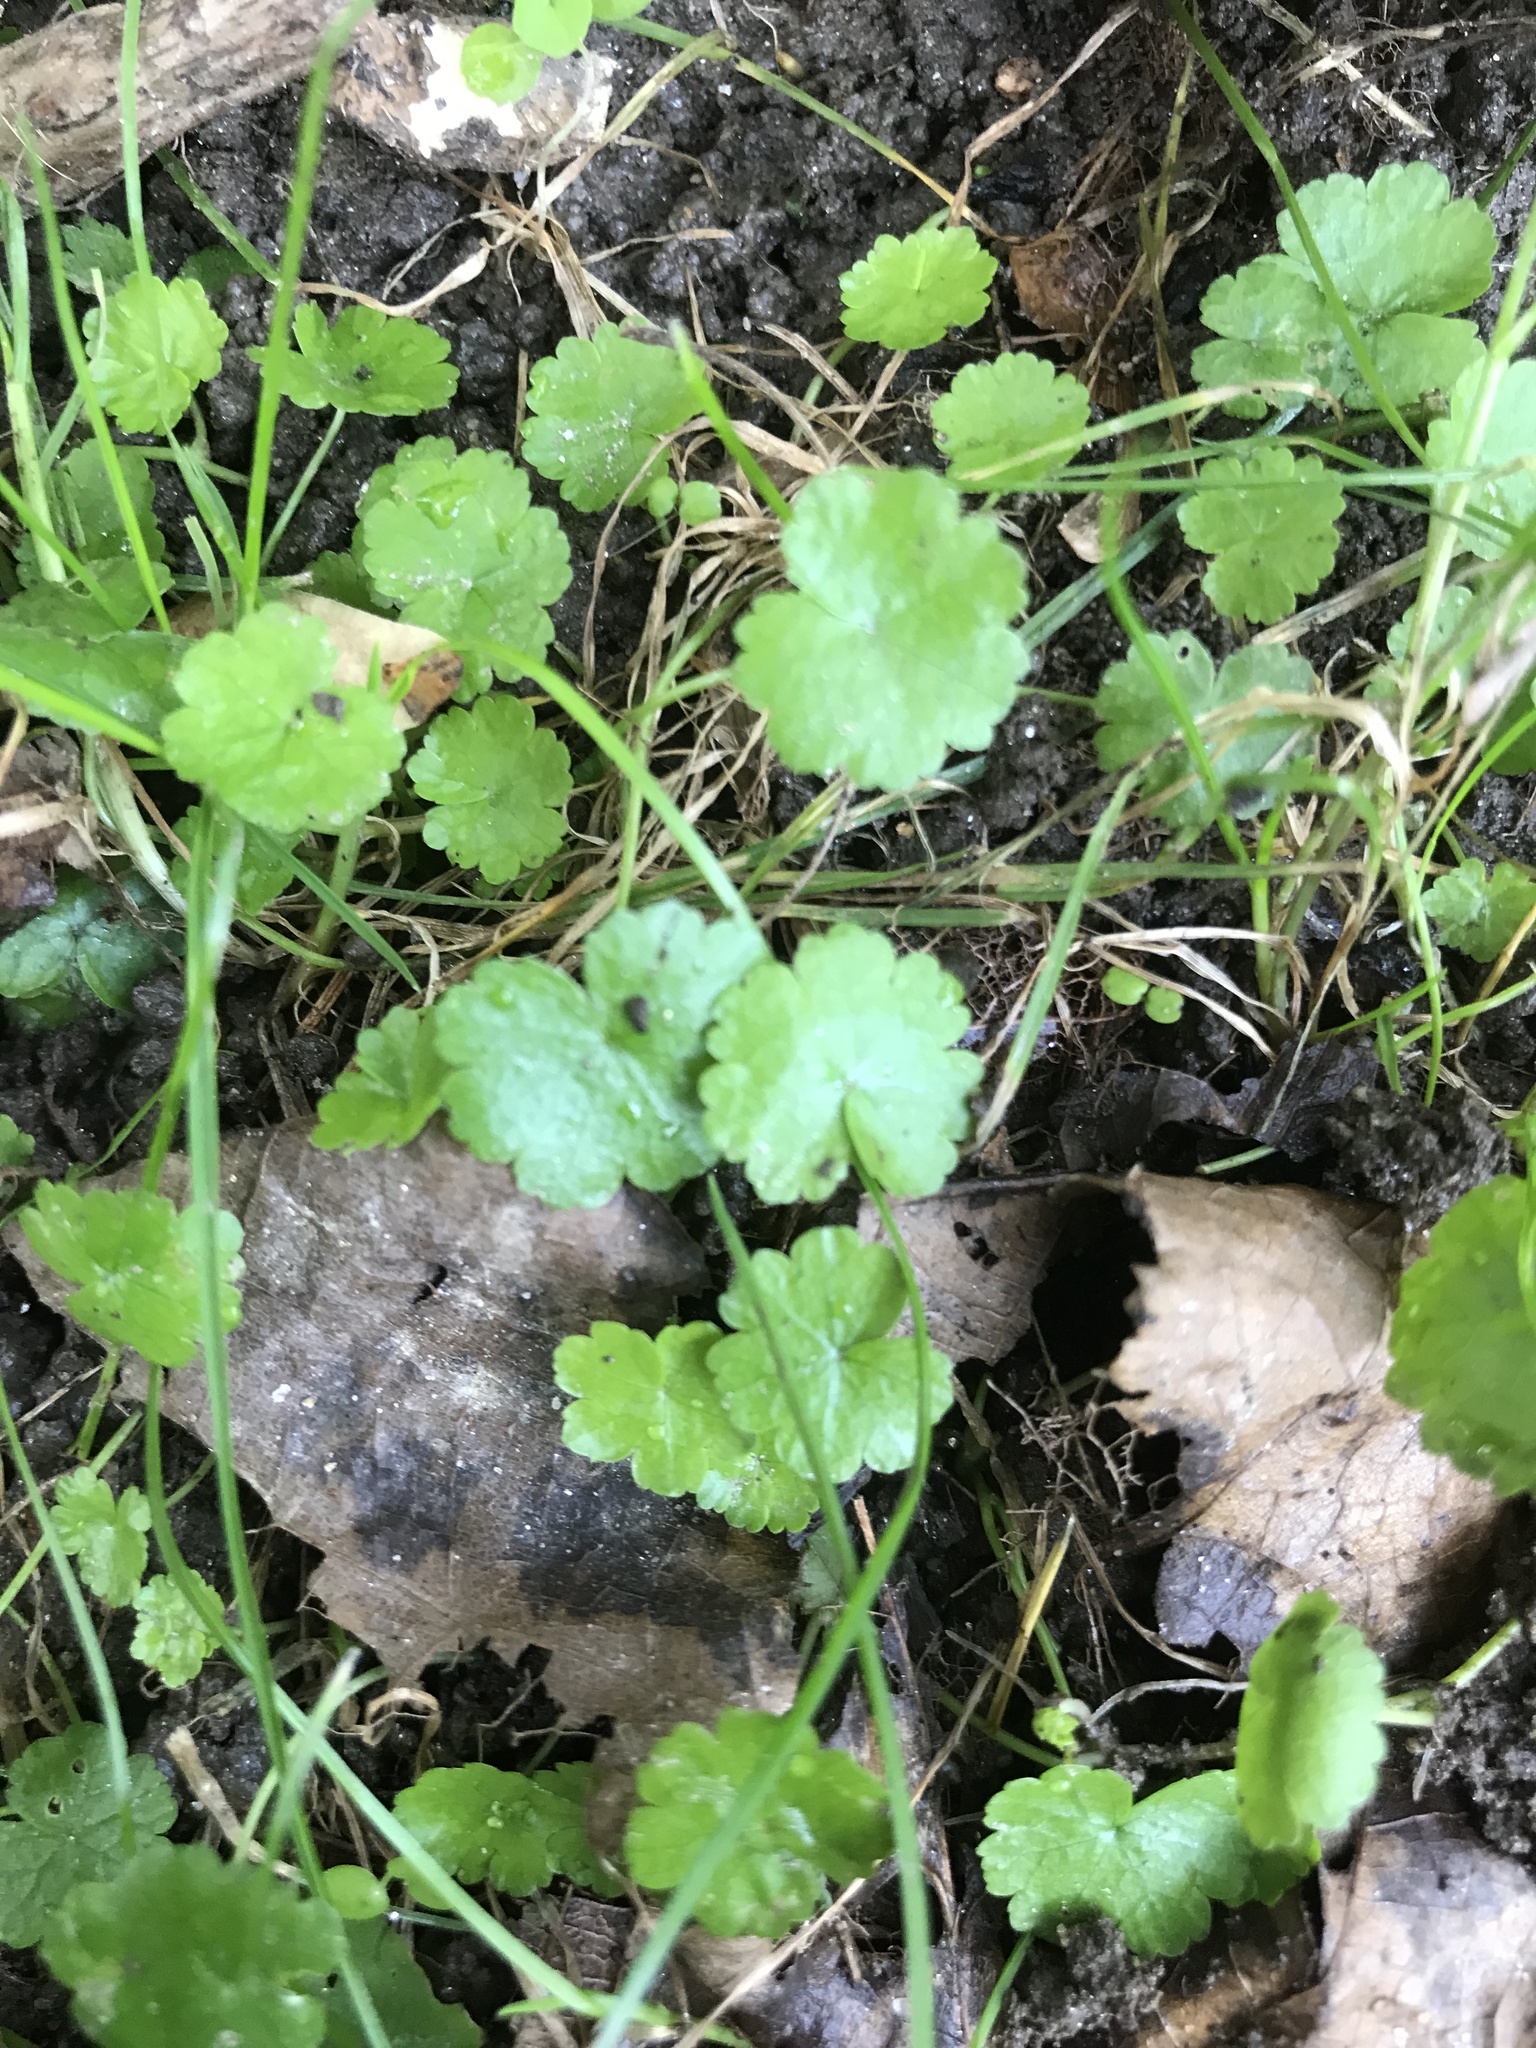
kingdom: Plantae
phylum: Tracheophyta
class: Magnoliopsida
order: Apiales
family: Araliaceae
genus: Hydrocotyle
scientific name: Hydrocotyle sibthorpioides
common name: Lawn marshpennywort
